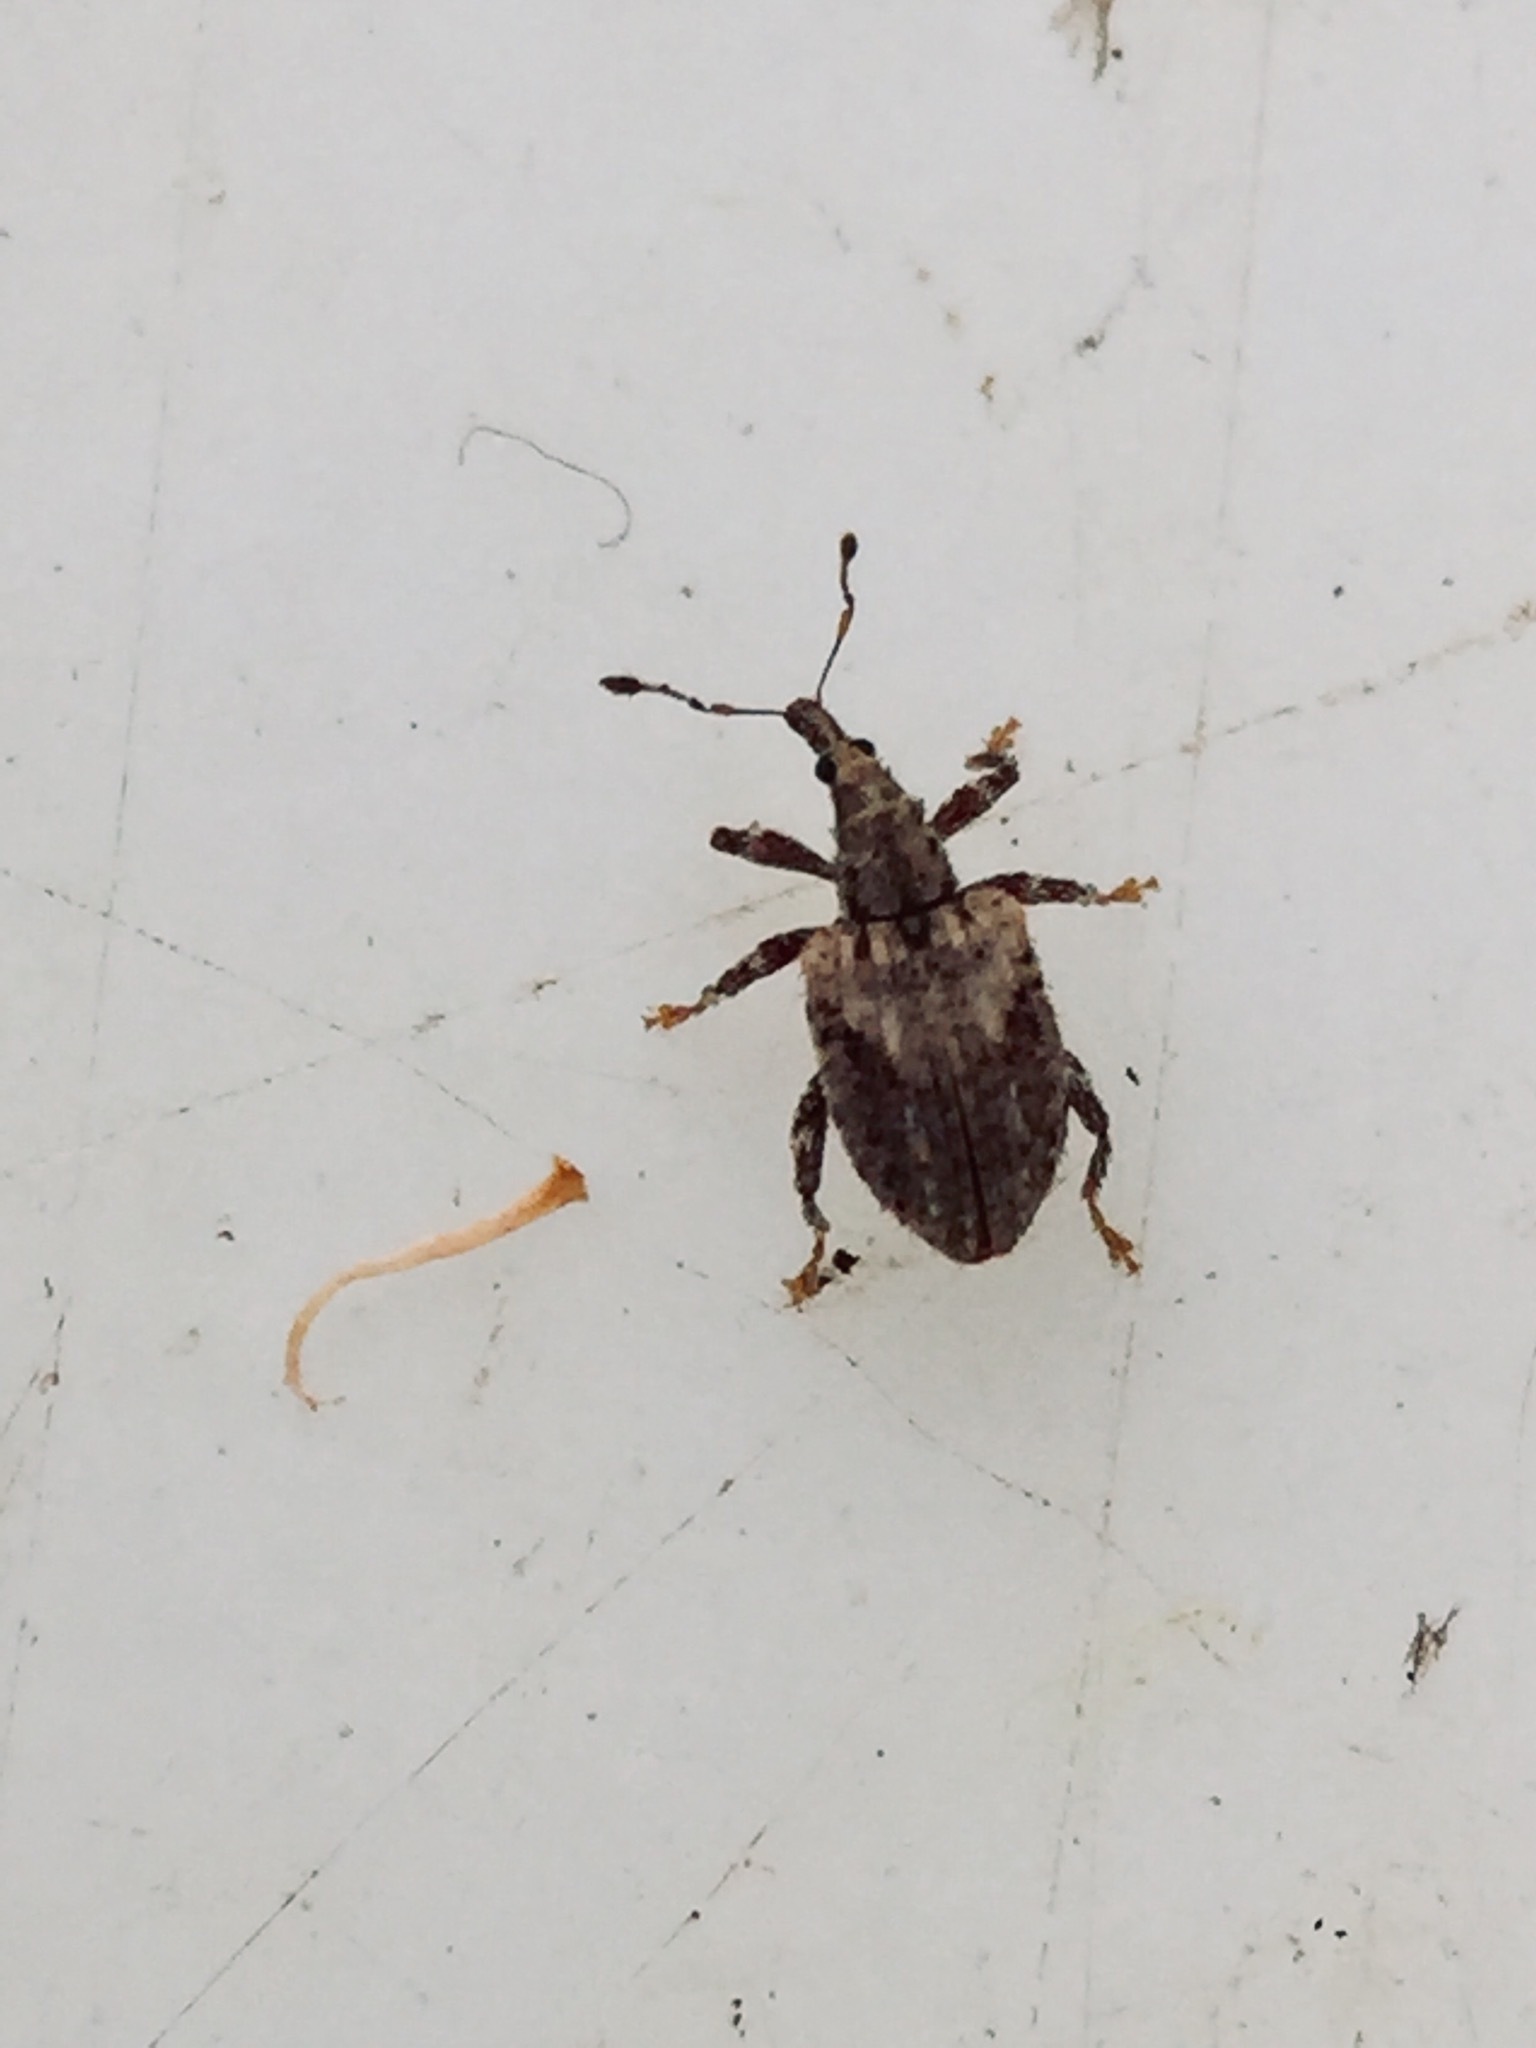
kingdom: Animalia
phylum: Arthropoda
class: Insecta
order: Coleoptera
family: Curculionidae
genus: Tysius
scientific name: Tysius bicornis
